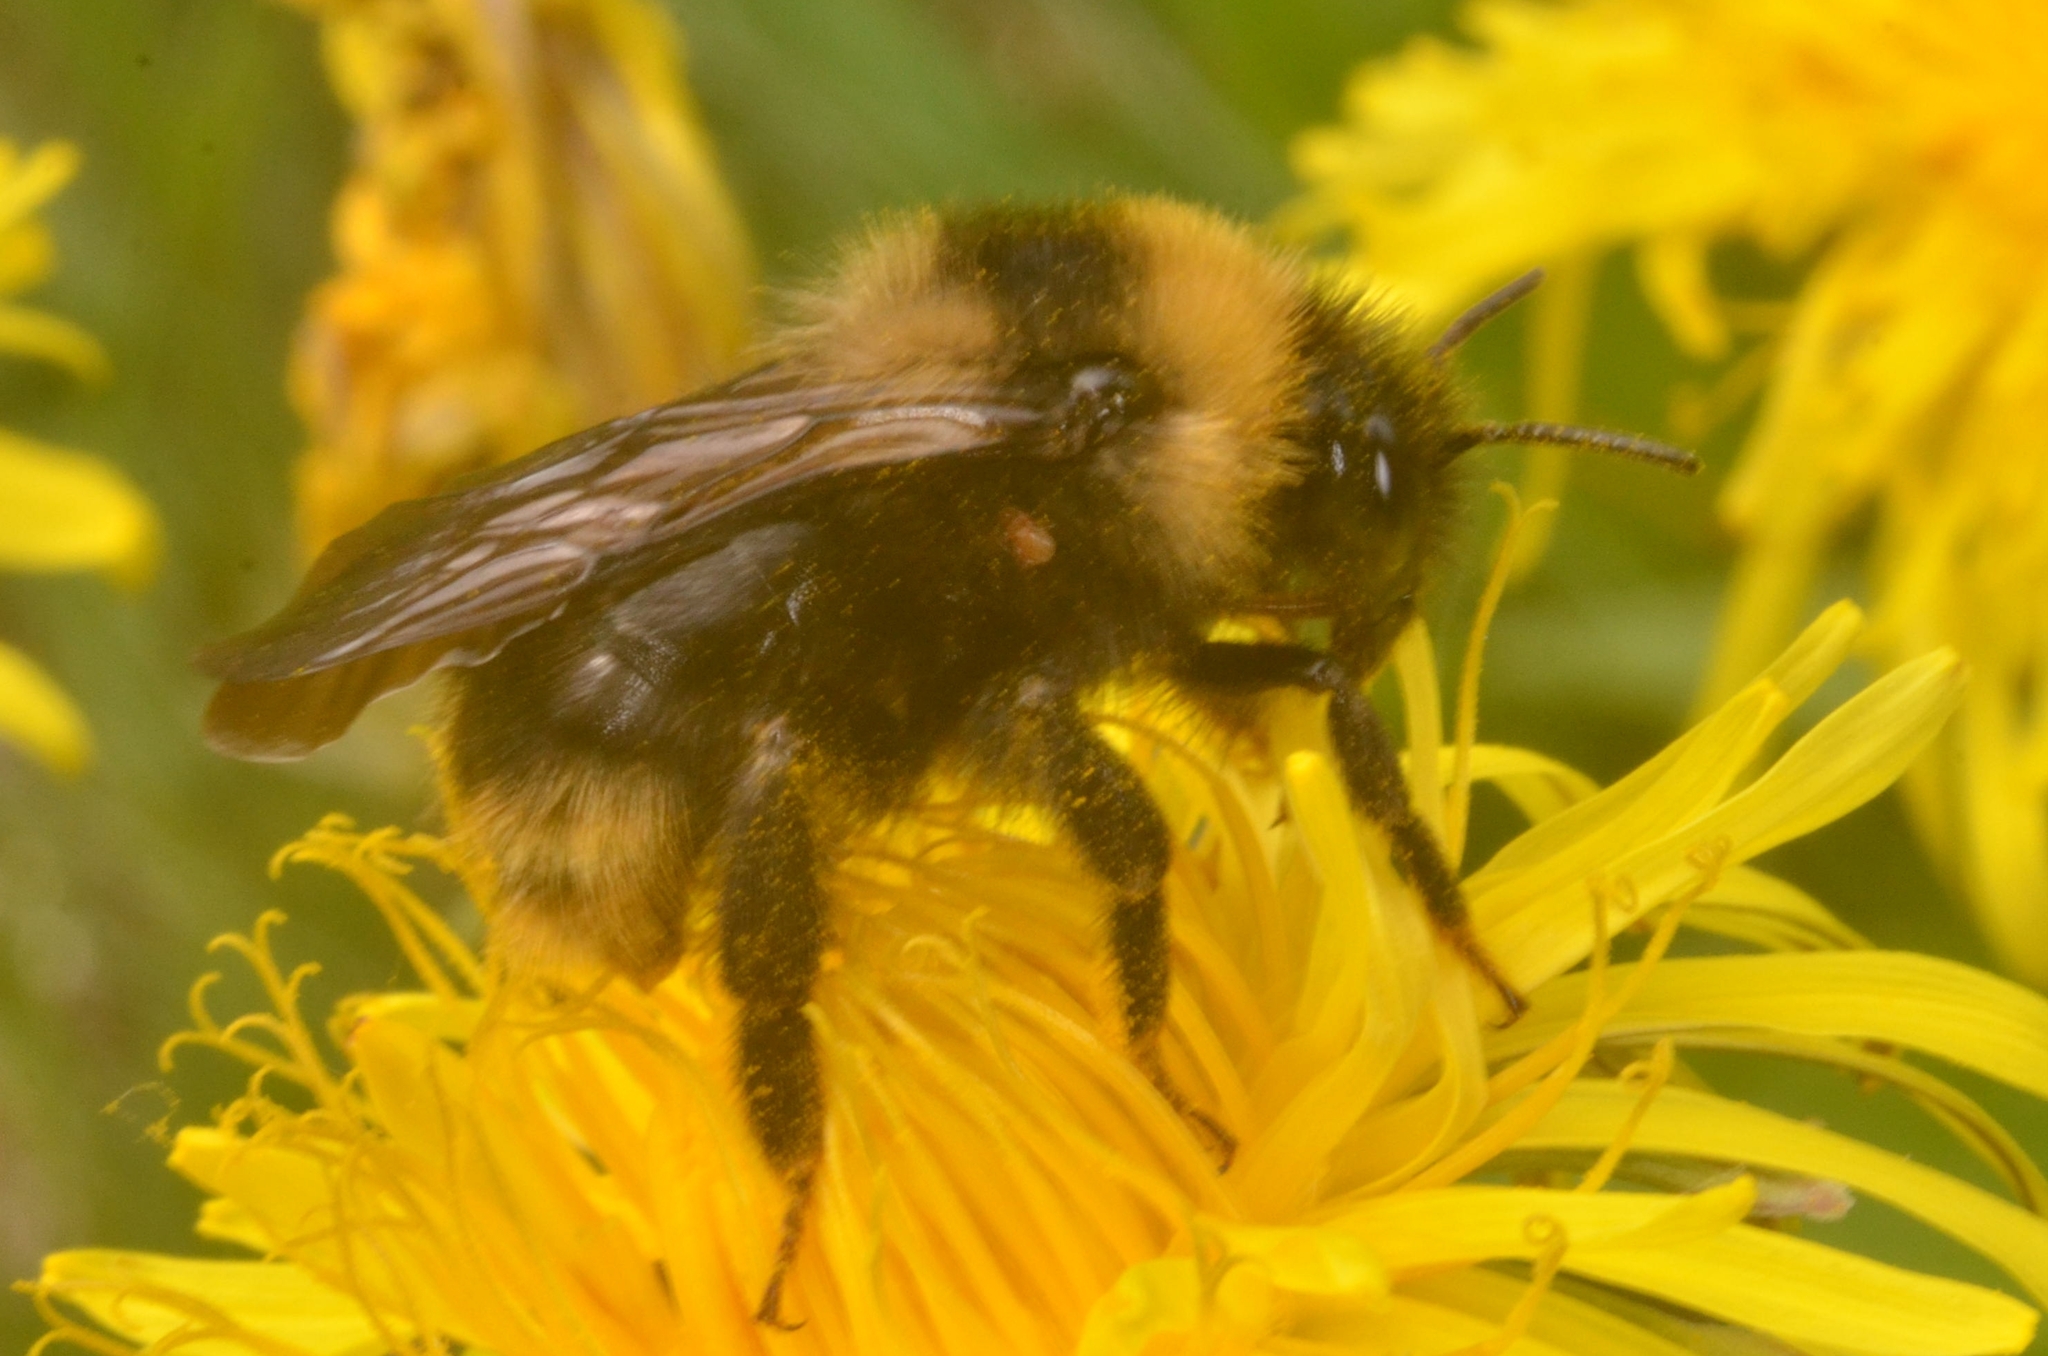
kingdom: Animalia
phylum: Arthropoda
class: Insecta
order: Hymenoptera
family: Apidae
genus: Bombus
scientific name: Bombus campestris
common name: Field cuckoo-bee
